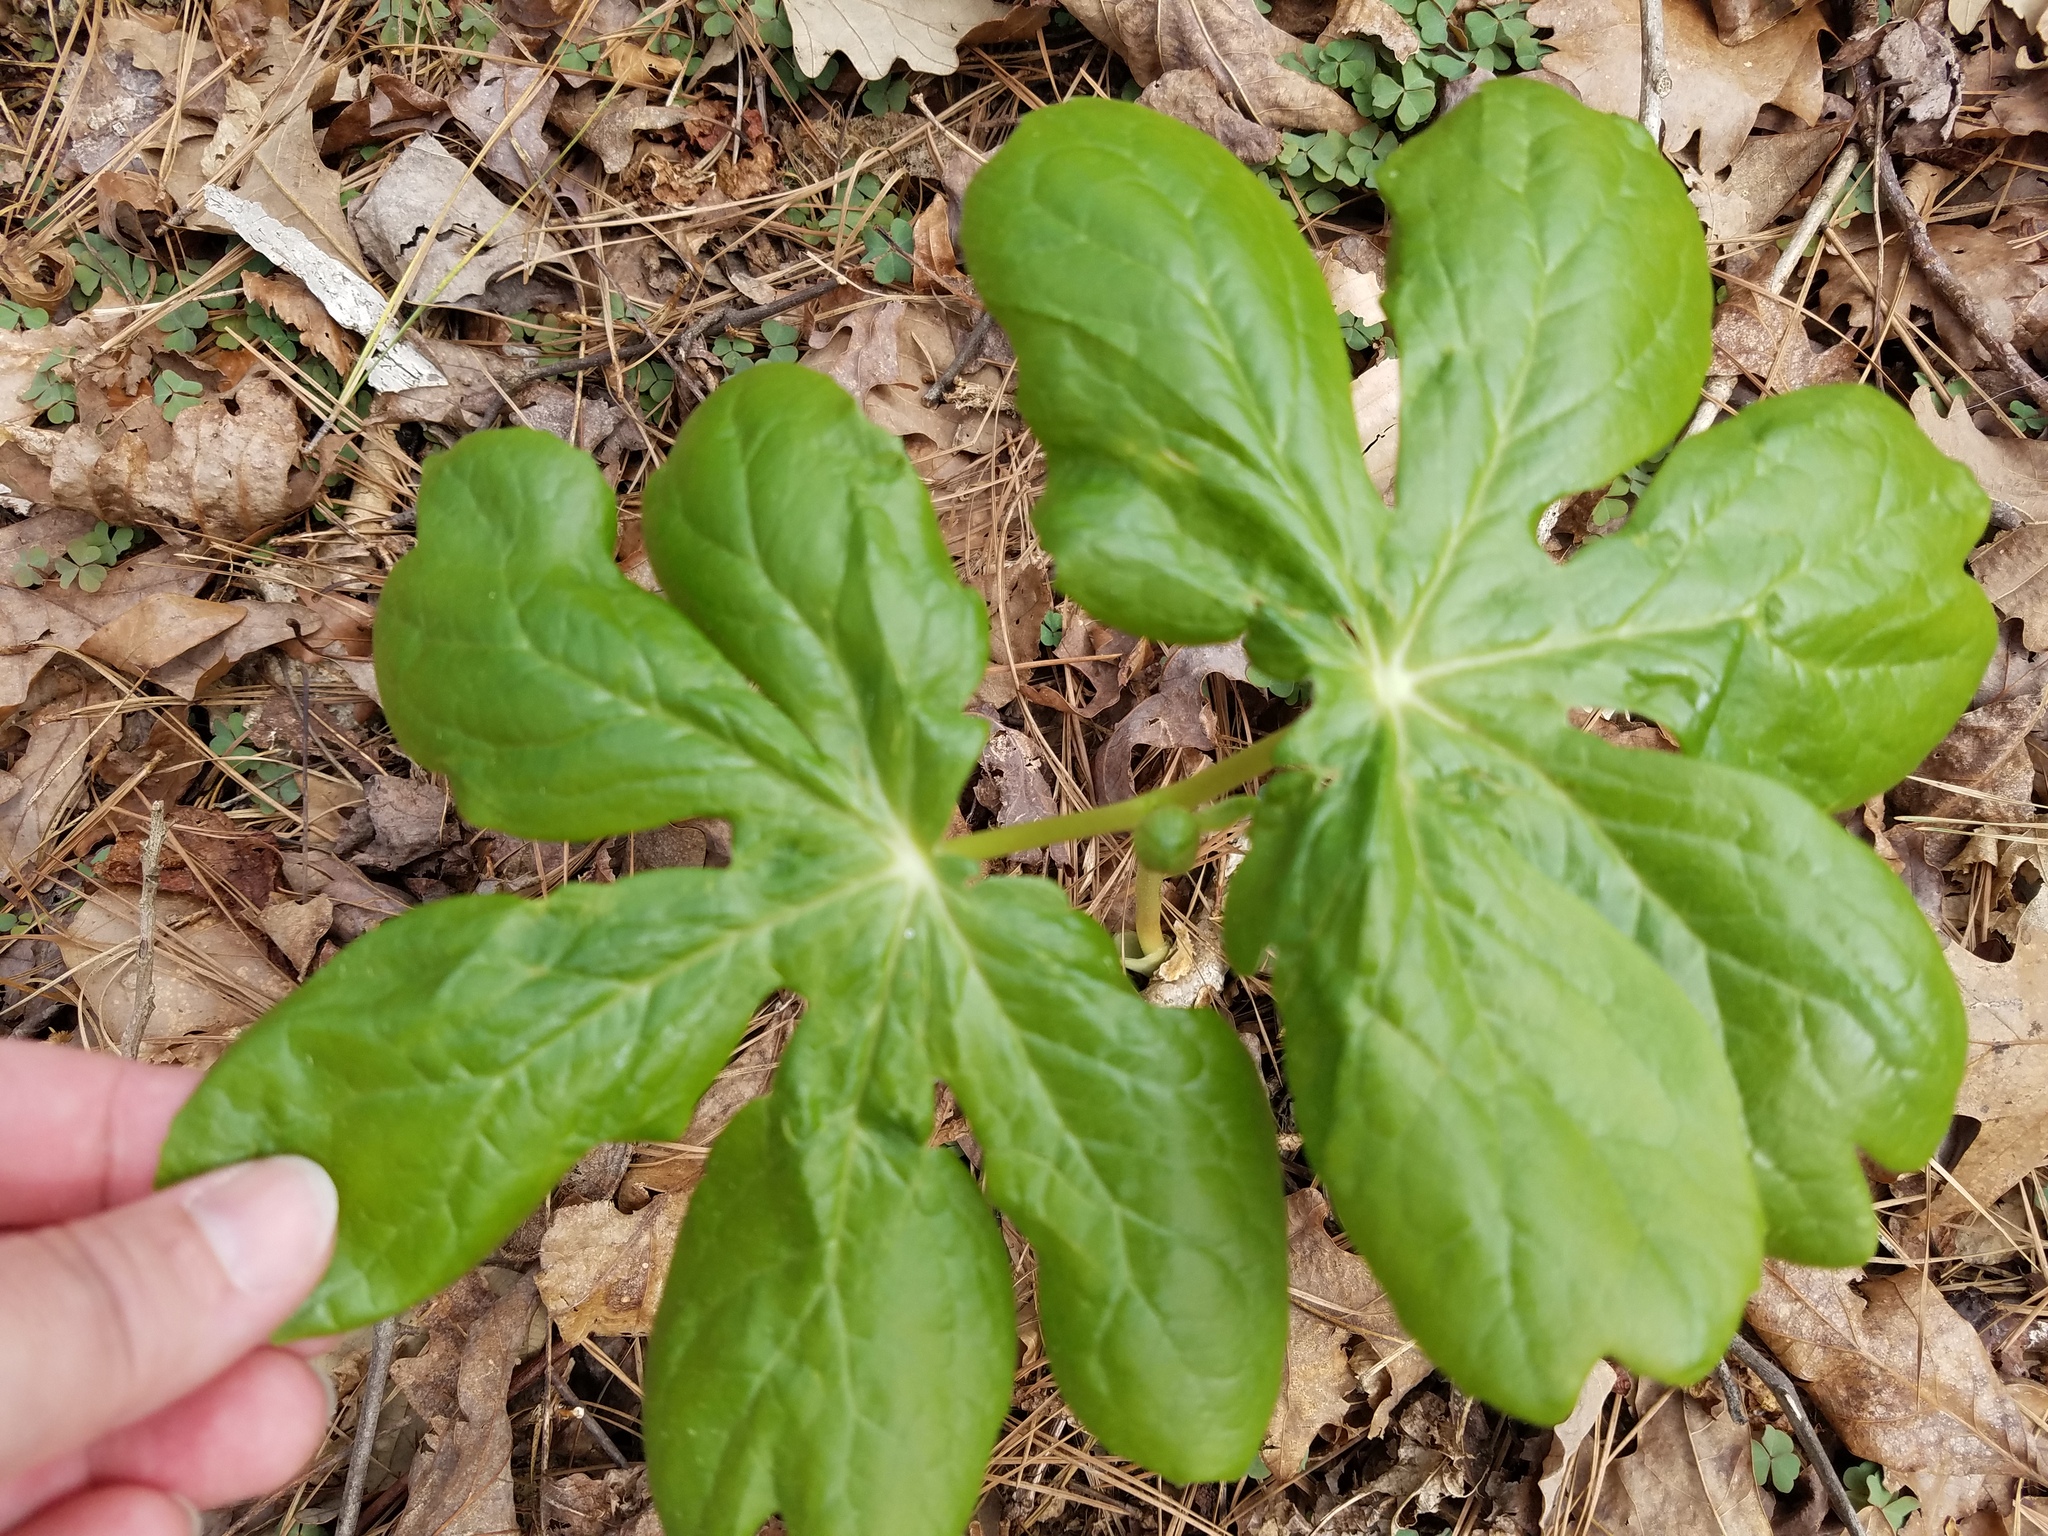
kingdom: Plantae
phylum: Tracheophyta
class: Magnoliopsida
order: Ranunculales
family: Berberidaceae
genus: Podophyllum
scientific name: Podophyllum peltatum
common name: Wild mandrake
